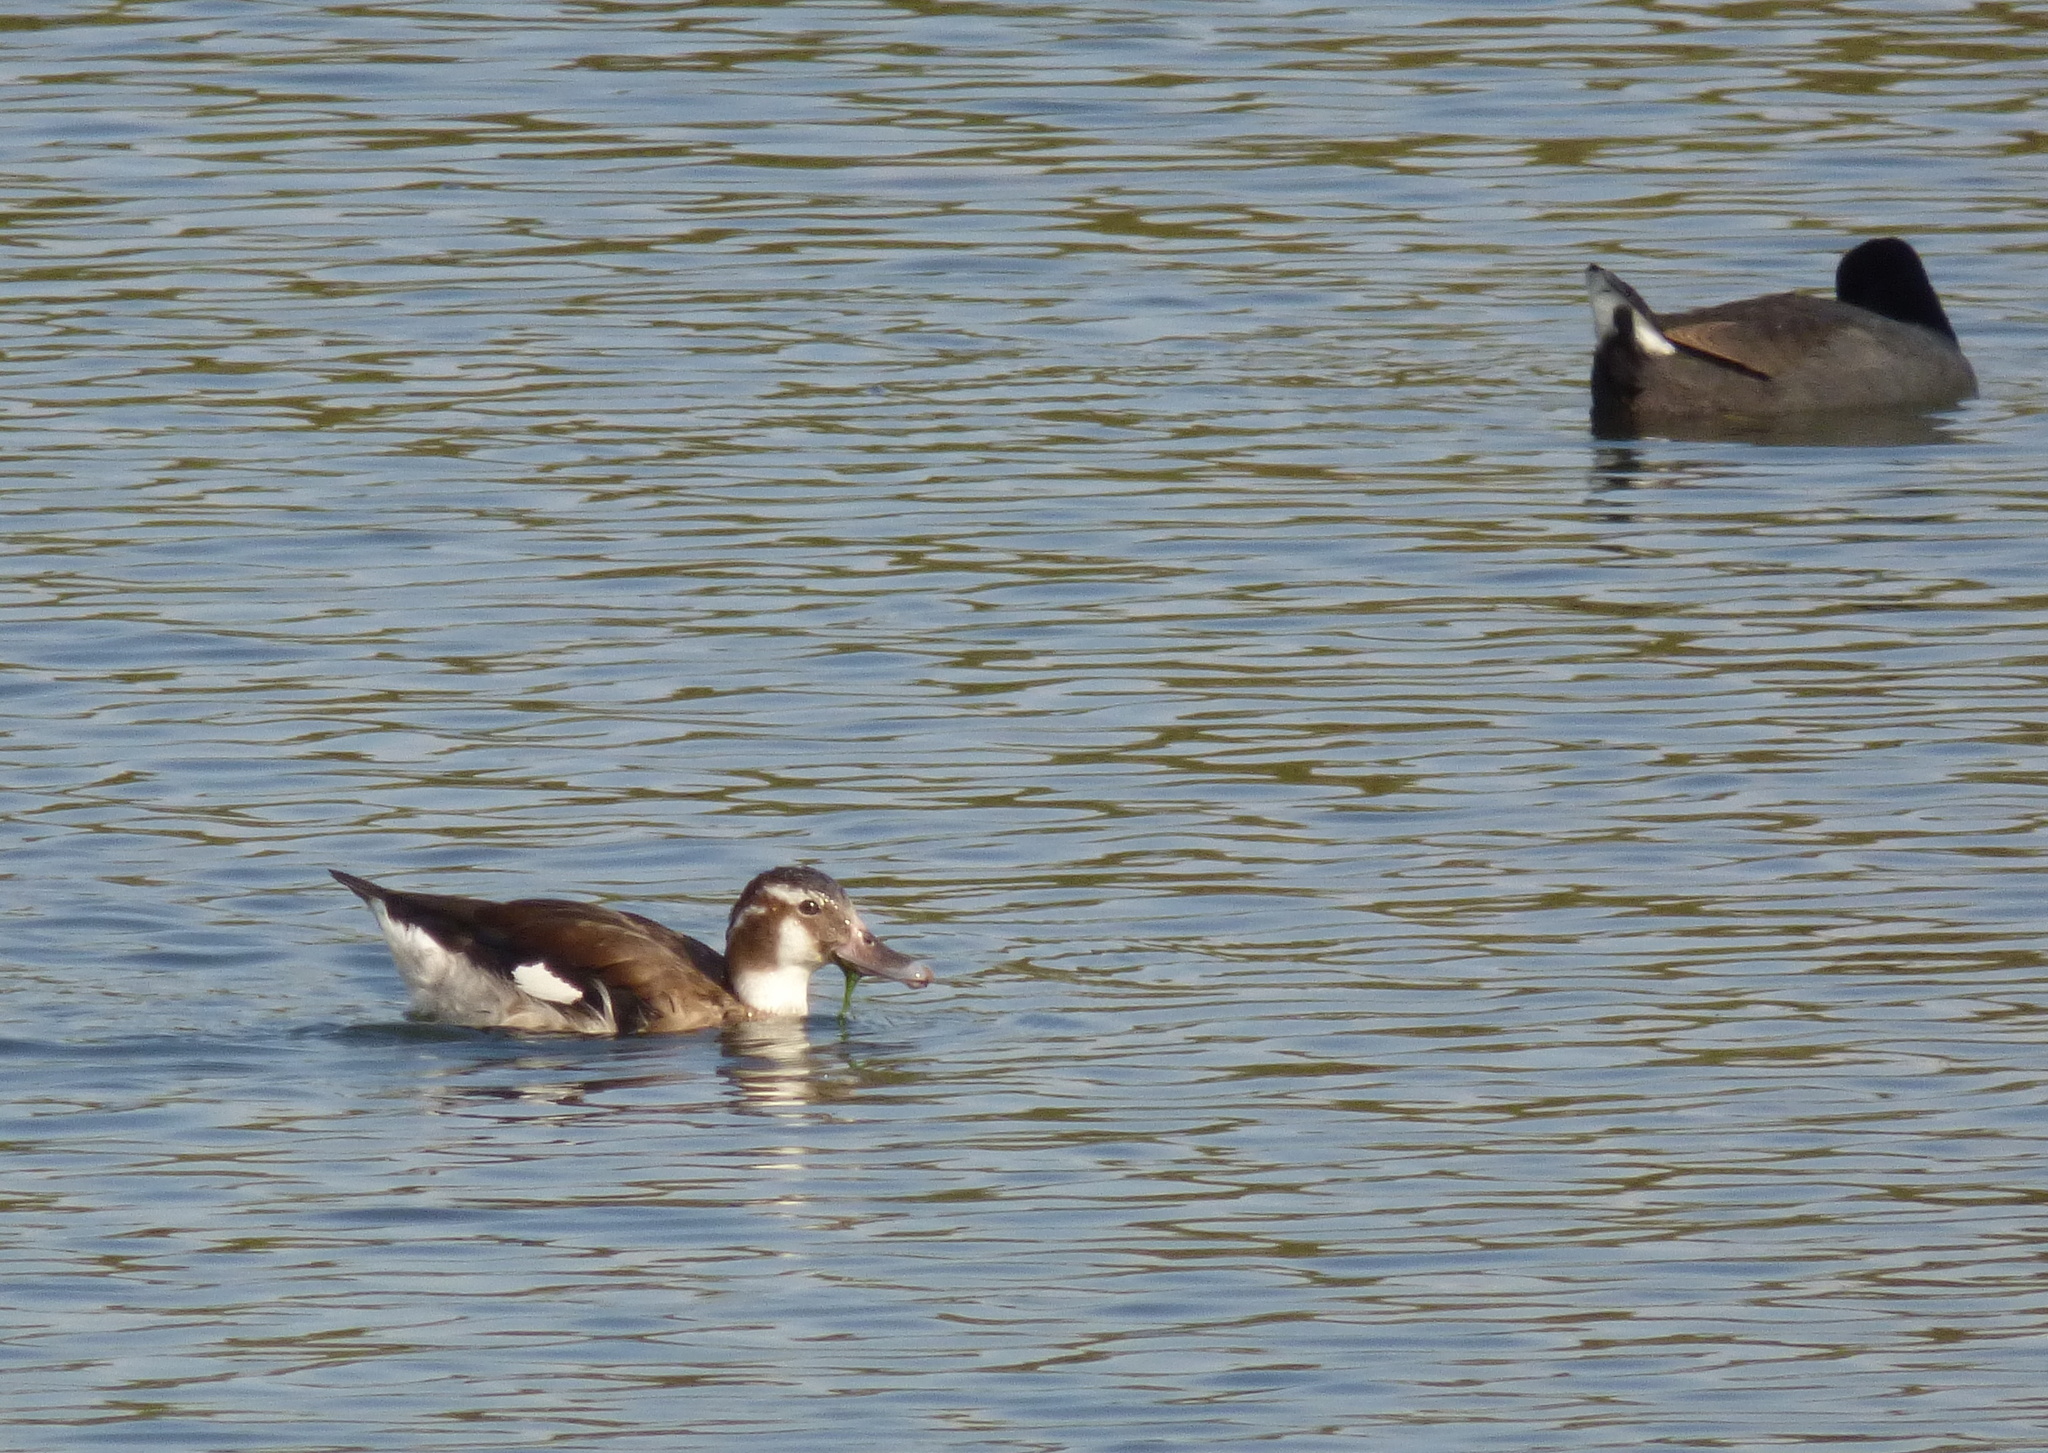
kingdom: Animalia
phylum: Chordata
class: Aves
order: Anseriformes
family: Anatidae
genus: Callonetta
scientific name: Callonetta leucophrys
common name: Ringed teal
